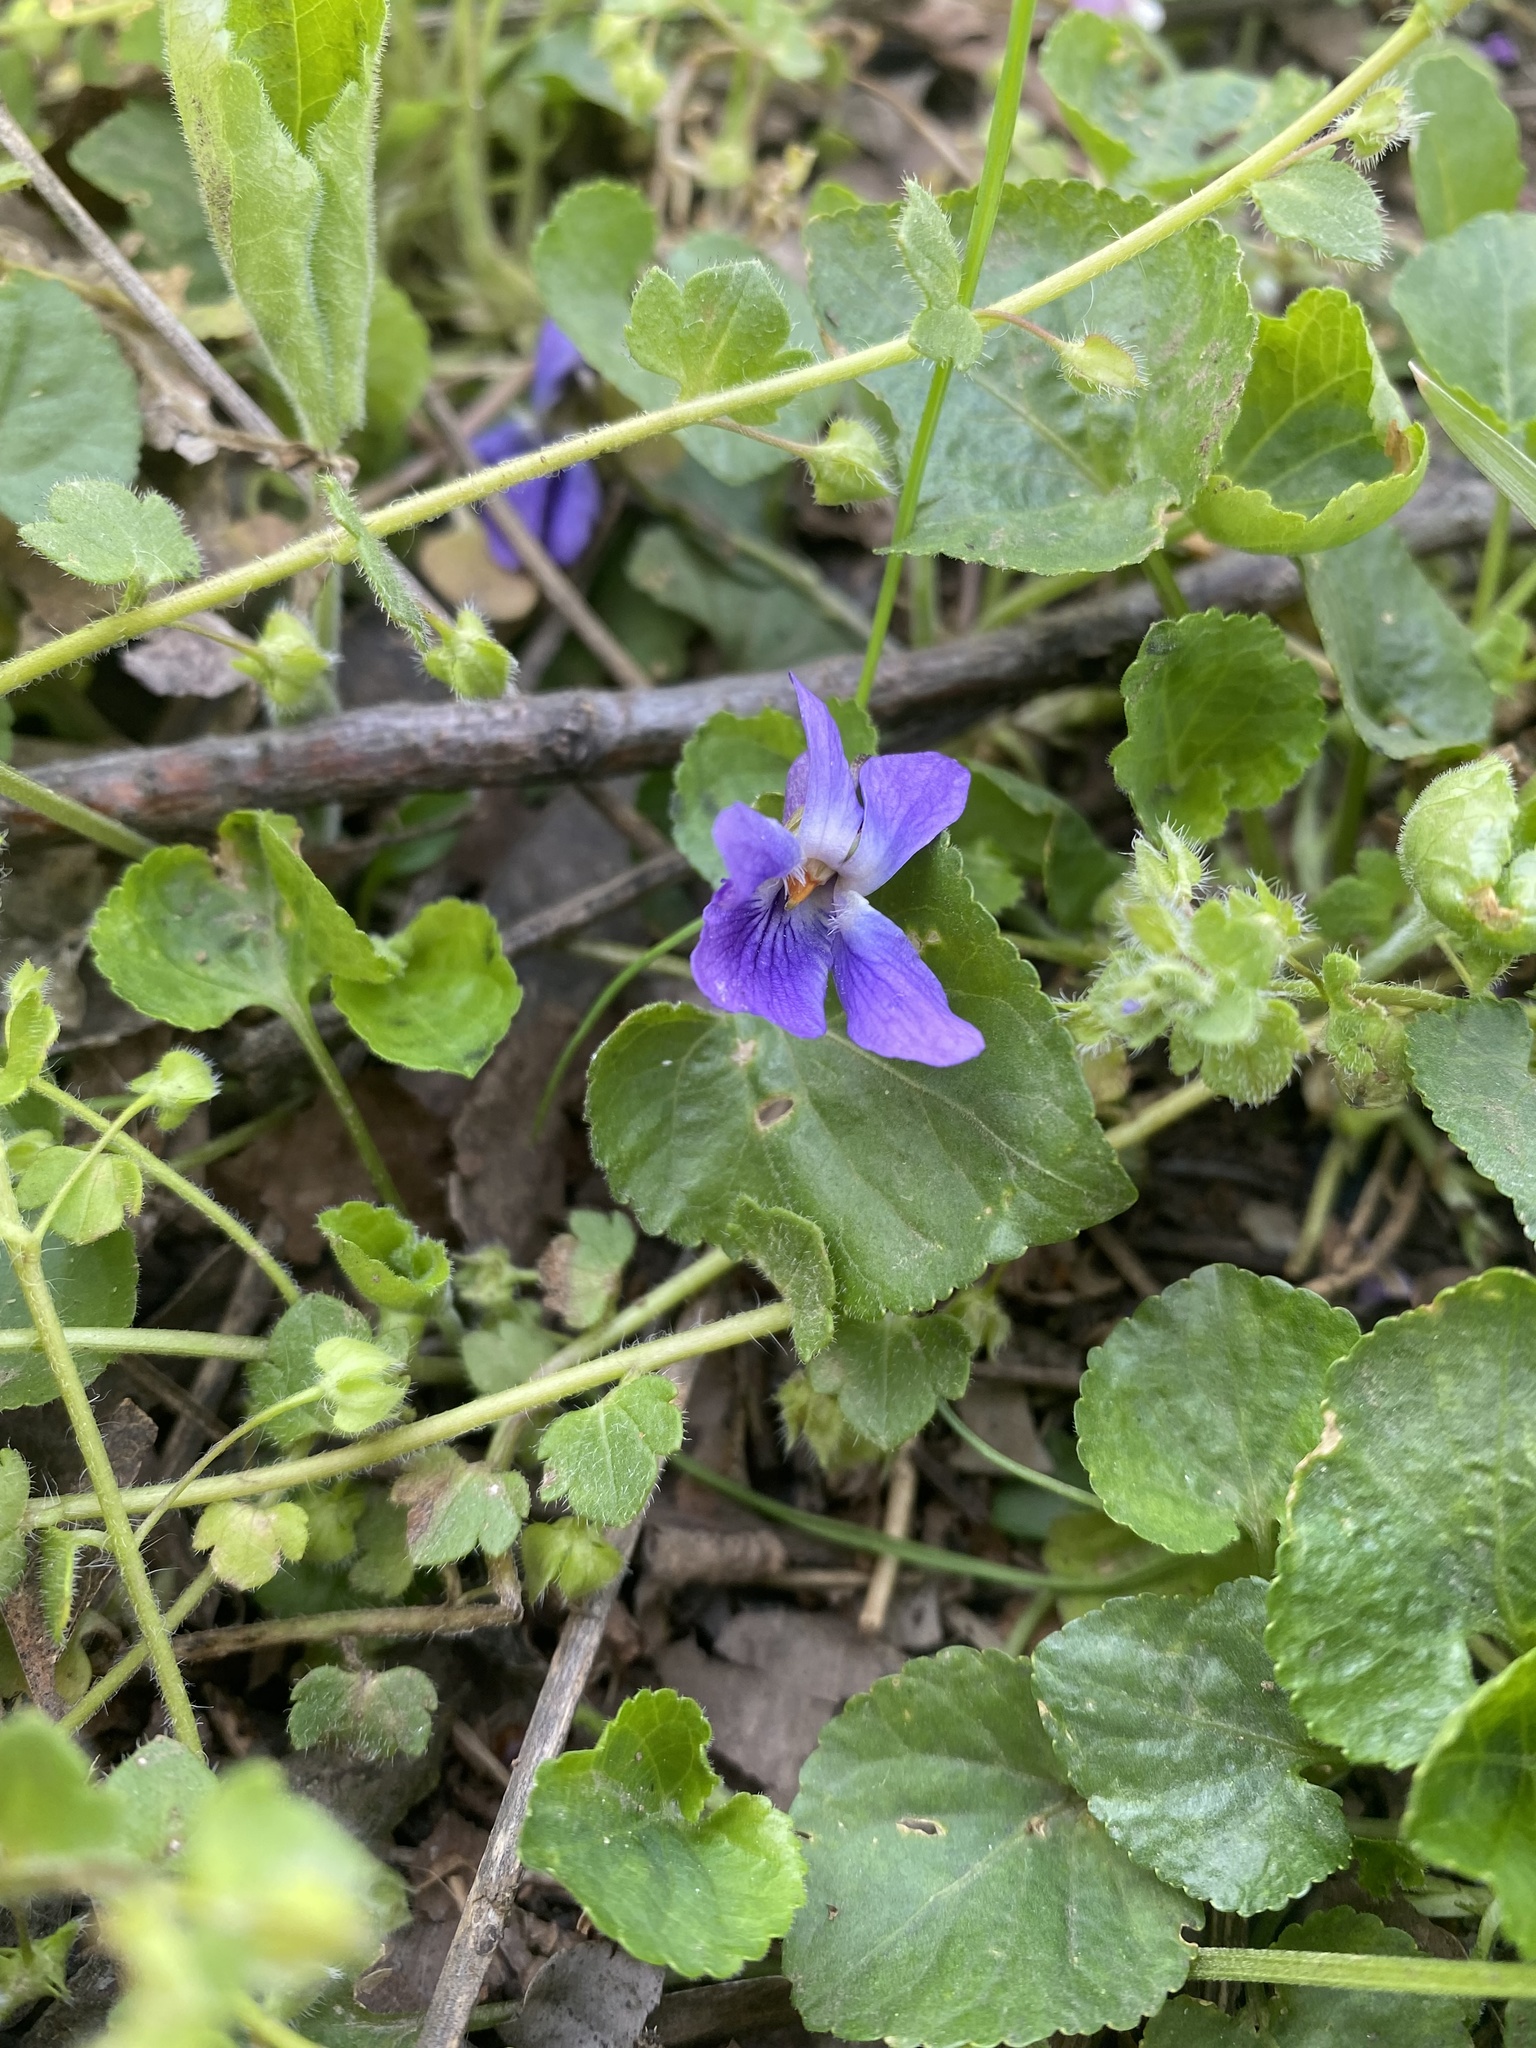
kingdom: Plantae
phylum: Tracheophyta
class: Magnoliopsida
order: Malpighiales
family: Violaceae
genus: Viola
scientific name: Viola odorata
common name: Sweet violet
